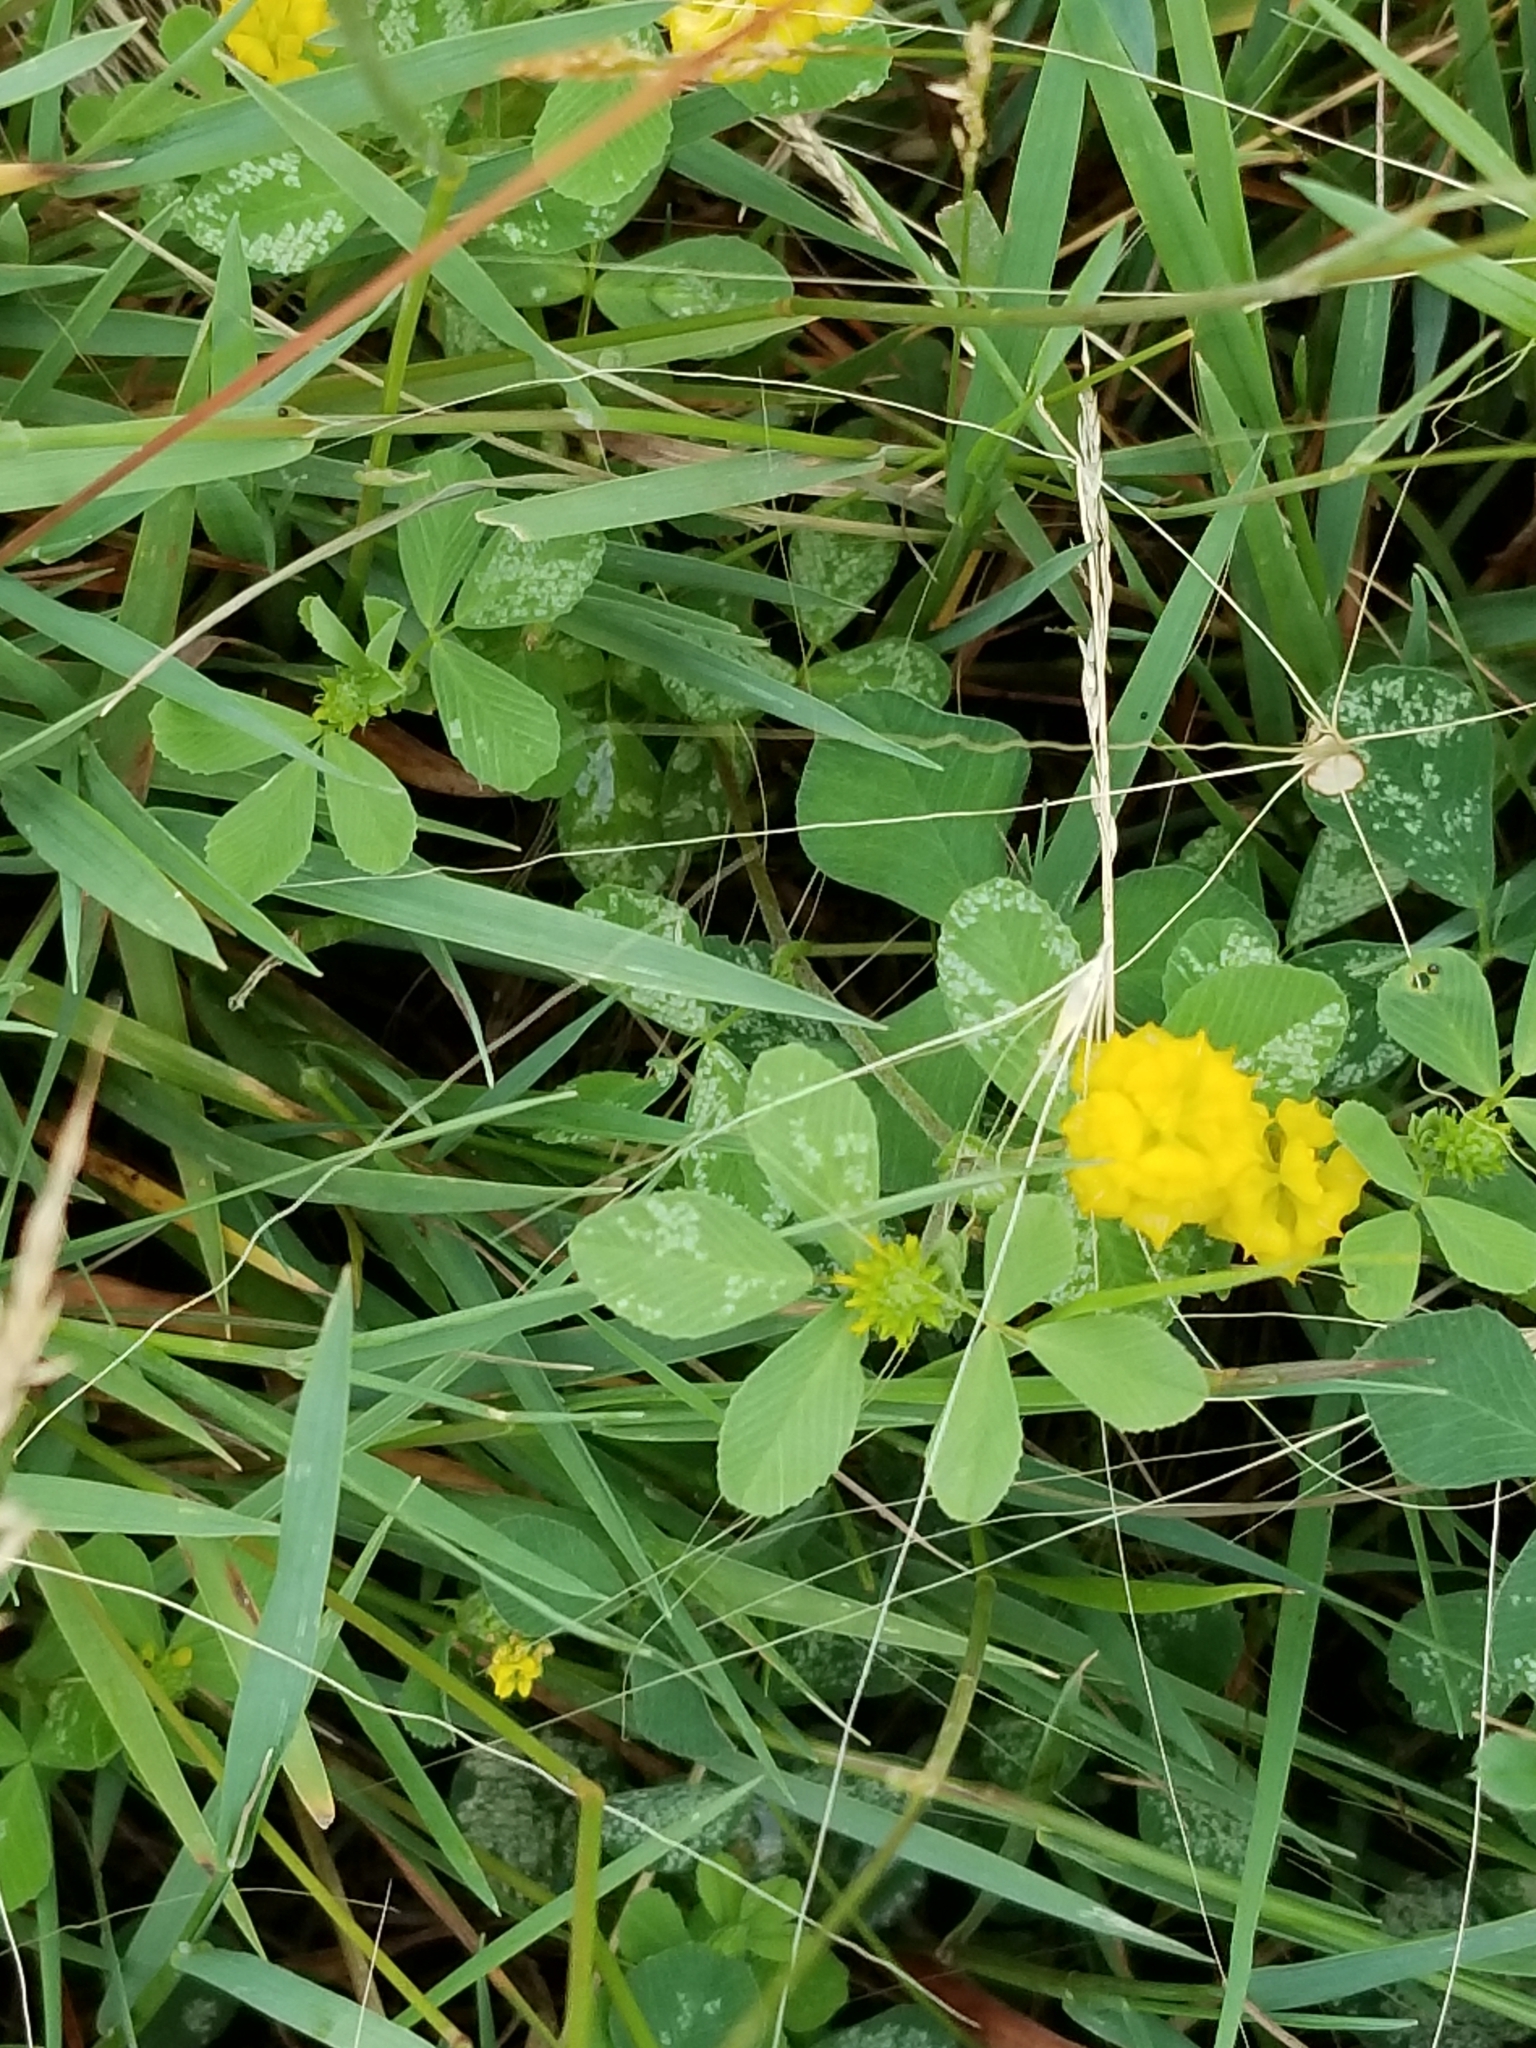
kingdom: Plantae
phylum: Tracheophyta
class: Magnoliopsida
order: Fabales
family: Fabaceae
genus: Trifolium
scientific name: Trifolium campestre
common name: Field clover
